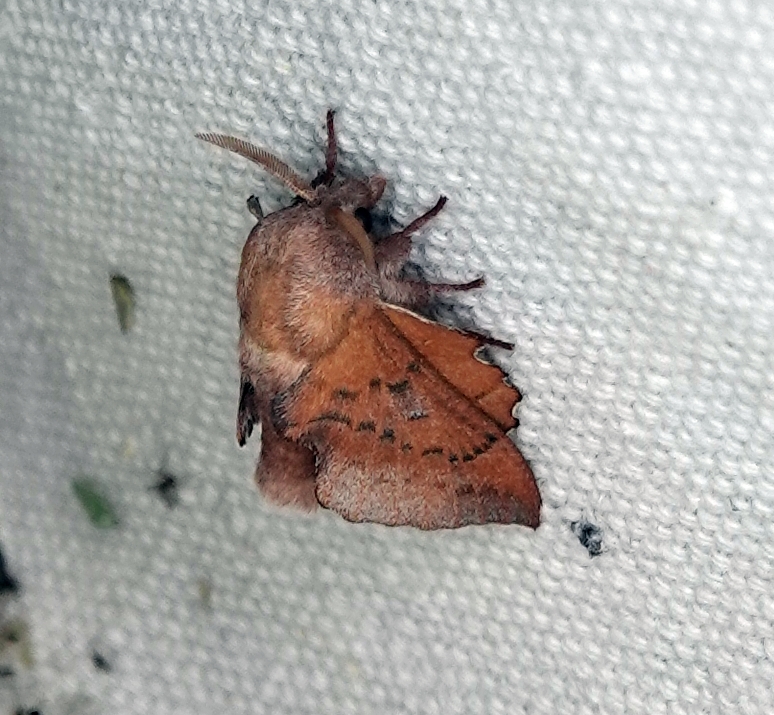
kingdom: Animalia
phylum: Arthropoda
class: Insecta
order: Lepidoptera
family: Lasiocampidae
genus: Phyllodesma
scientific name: Phyllodesma americana
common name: American lappet moth
